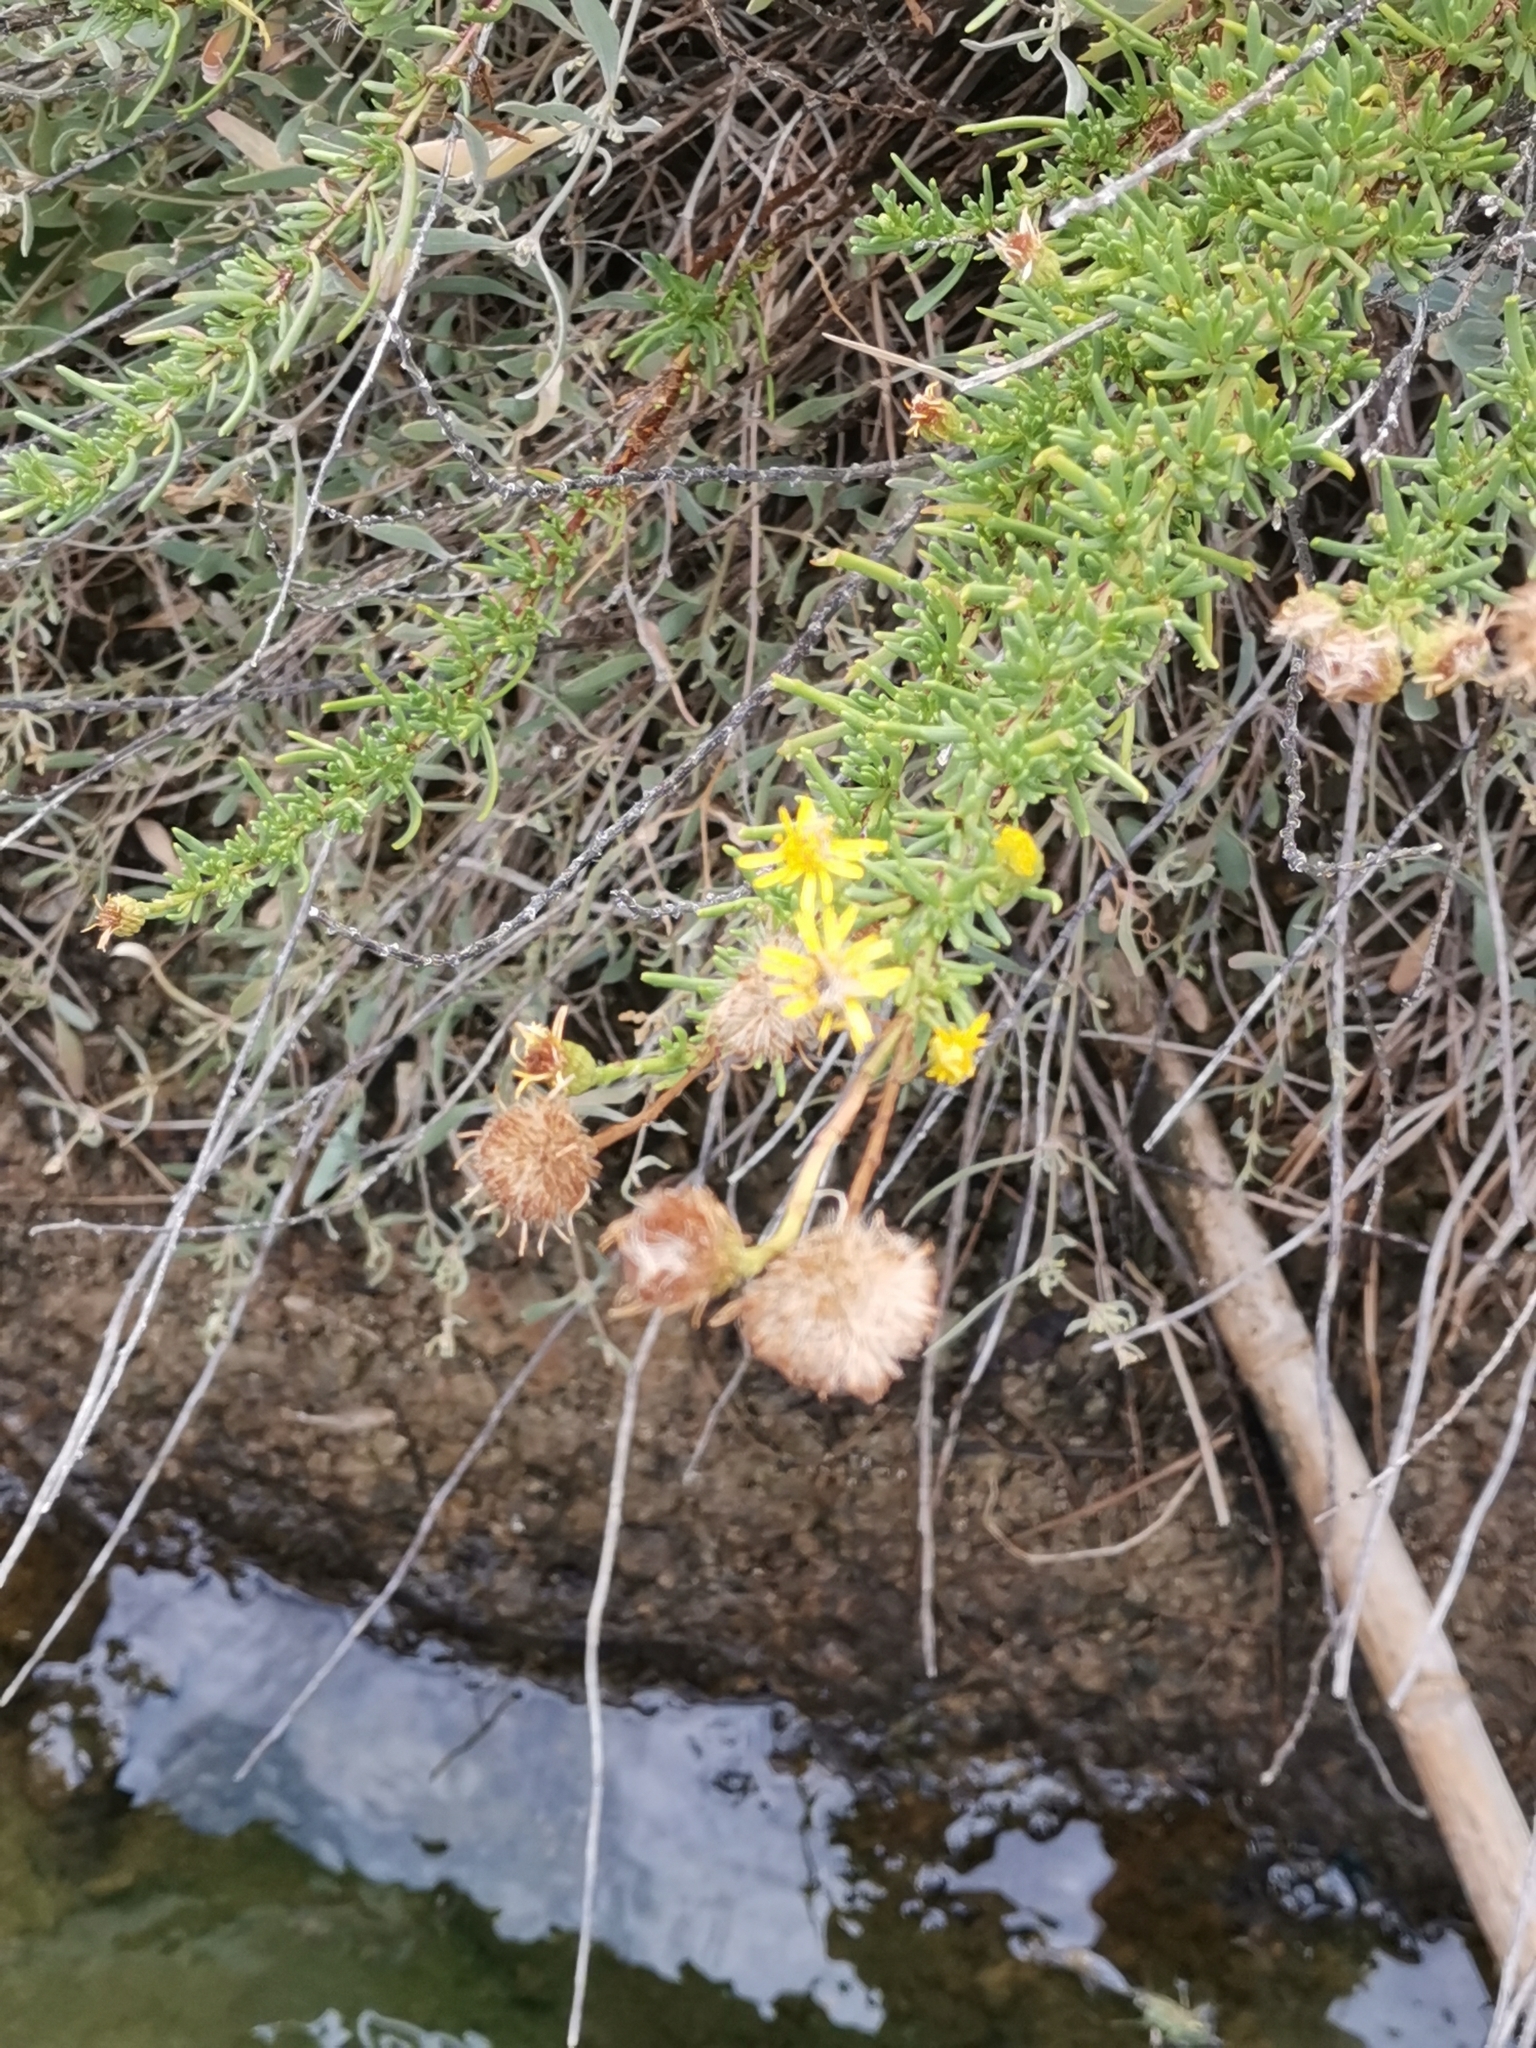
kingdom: Plantae
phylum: Tracheophyta
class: Magnoliopsida
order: Asterales
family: Asteraceae
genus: Limbarda
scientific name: Limbarda crithmoides
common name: Golden samphire
